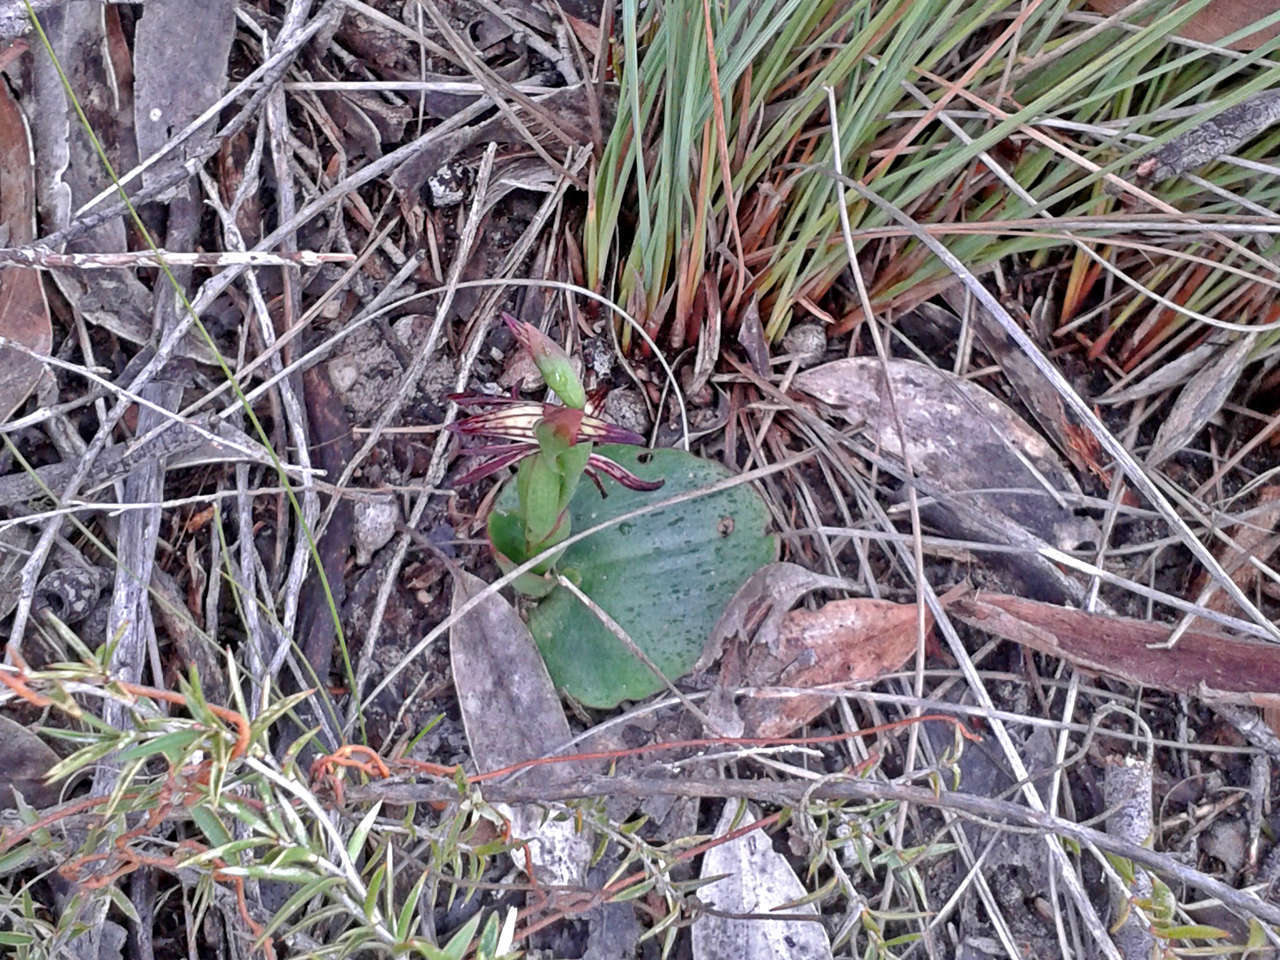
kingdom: Plantae
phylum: Tracheophyta
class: Liliopsida
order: Asparagales
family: Orchidaceae
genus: Pyrorchis
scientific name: Pyrorchis nigricans
